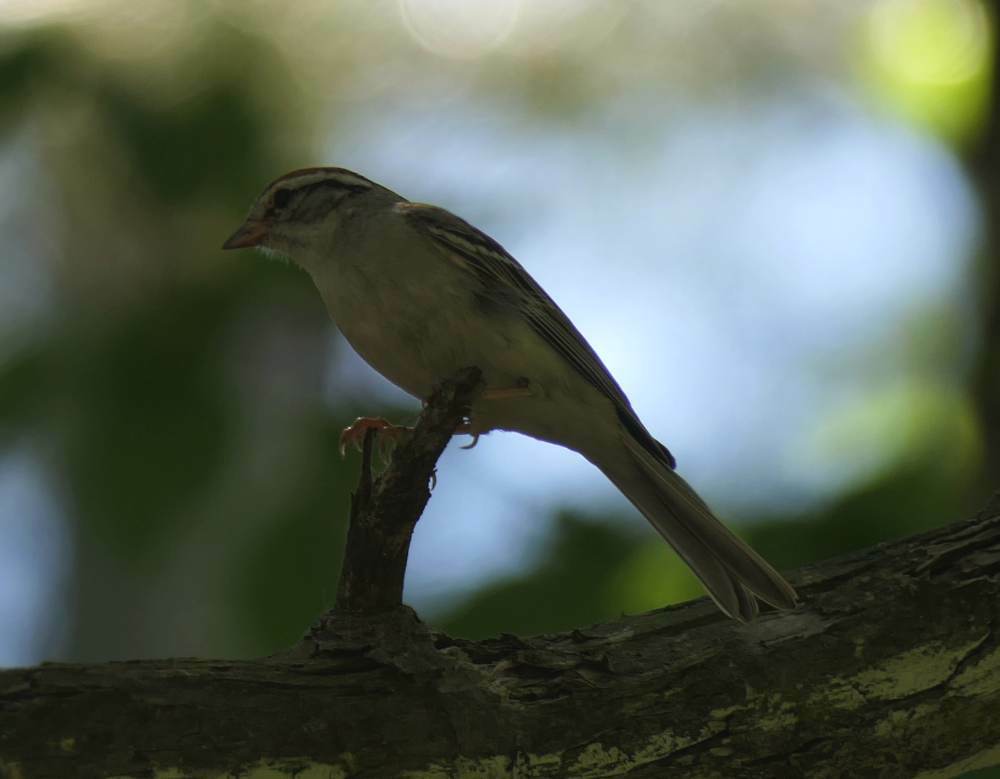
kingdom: Animalia
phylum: Chordata
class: Aves
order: Passeriformes
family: Passerellidae
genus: Spizella
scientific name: Spizella passerina
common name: Chipping sparrow
